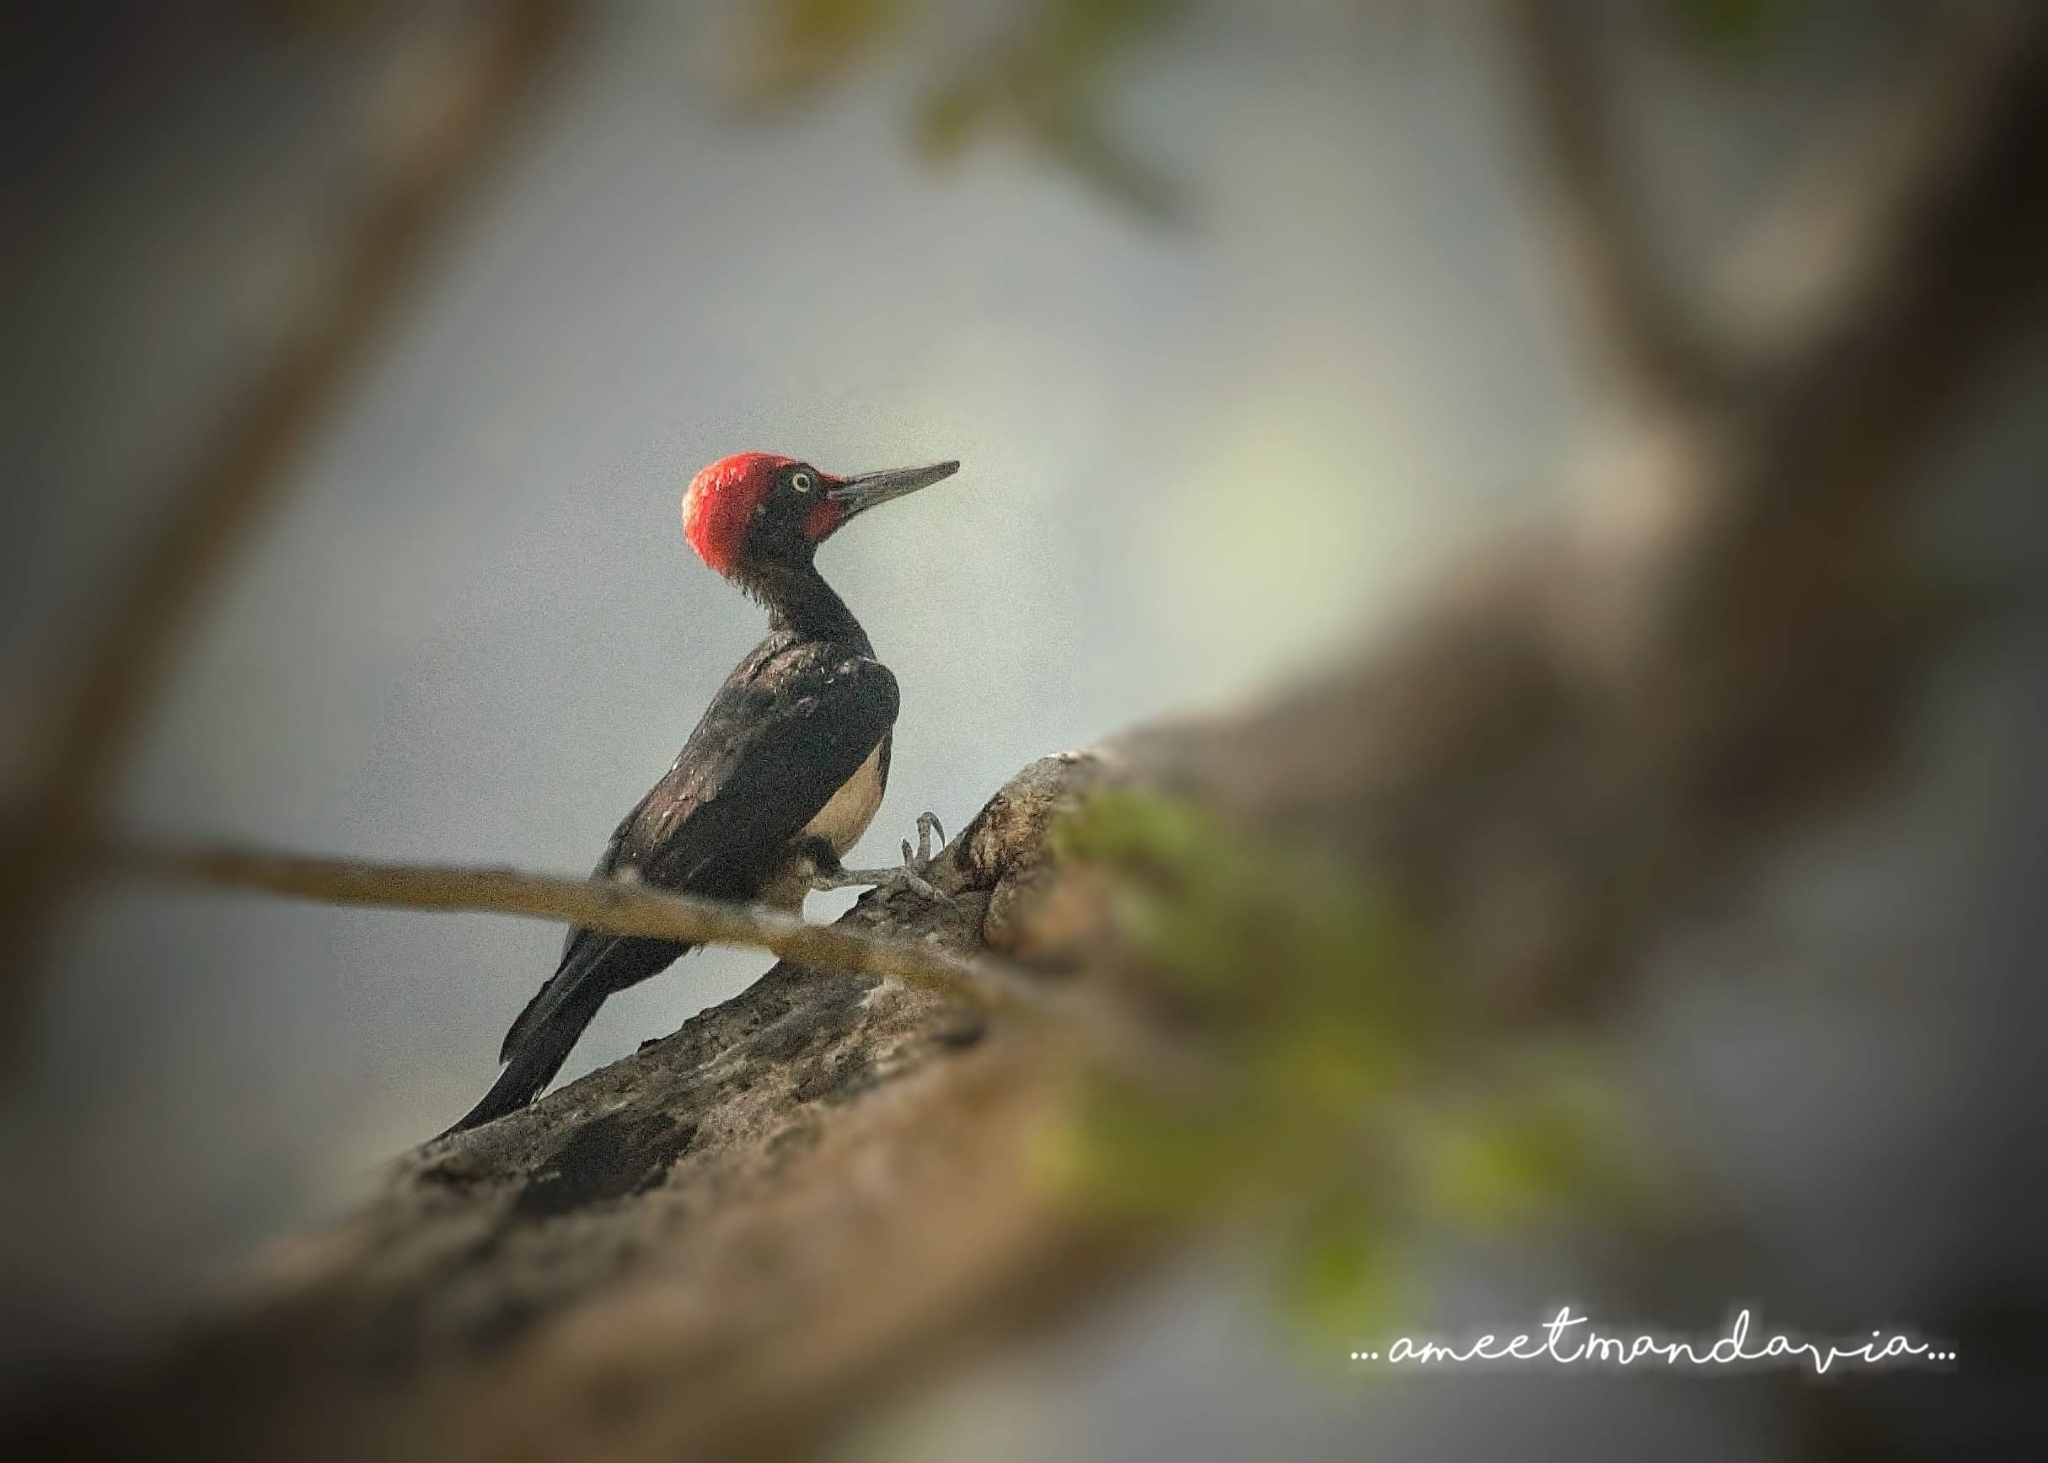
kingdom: Animalia
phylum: Chordata
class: Aves
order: Piciformes
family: Picidae
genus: Dryocopus
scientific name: Dryocopus javensis
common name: White-bellied woodpecker
